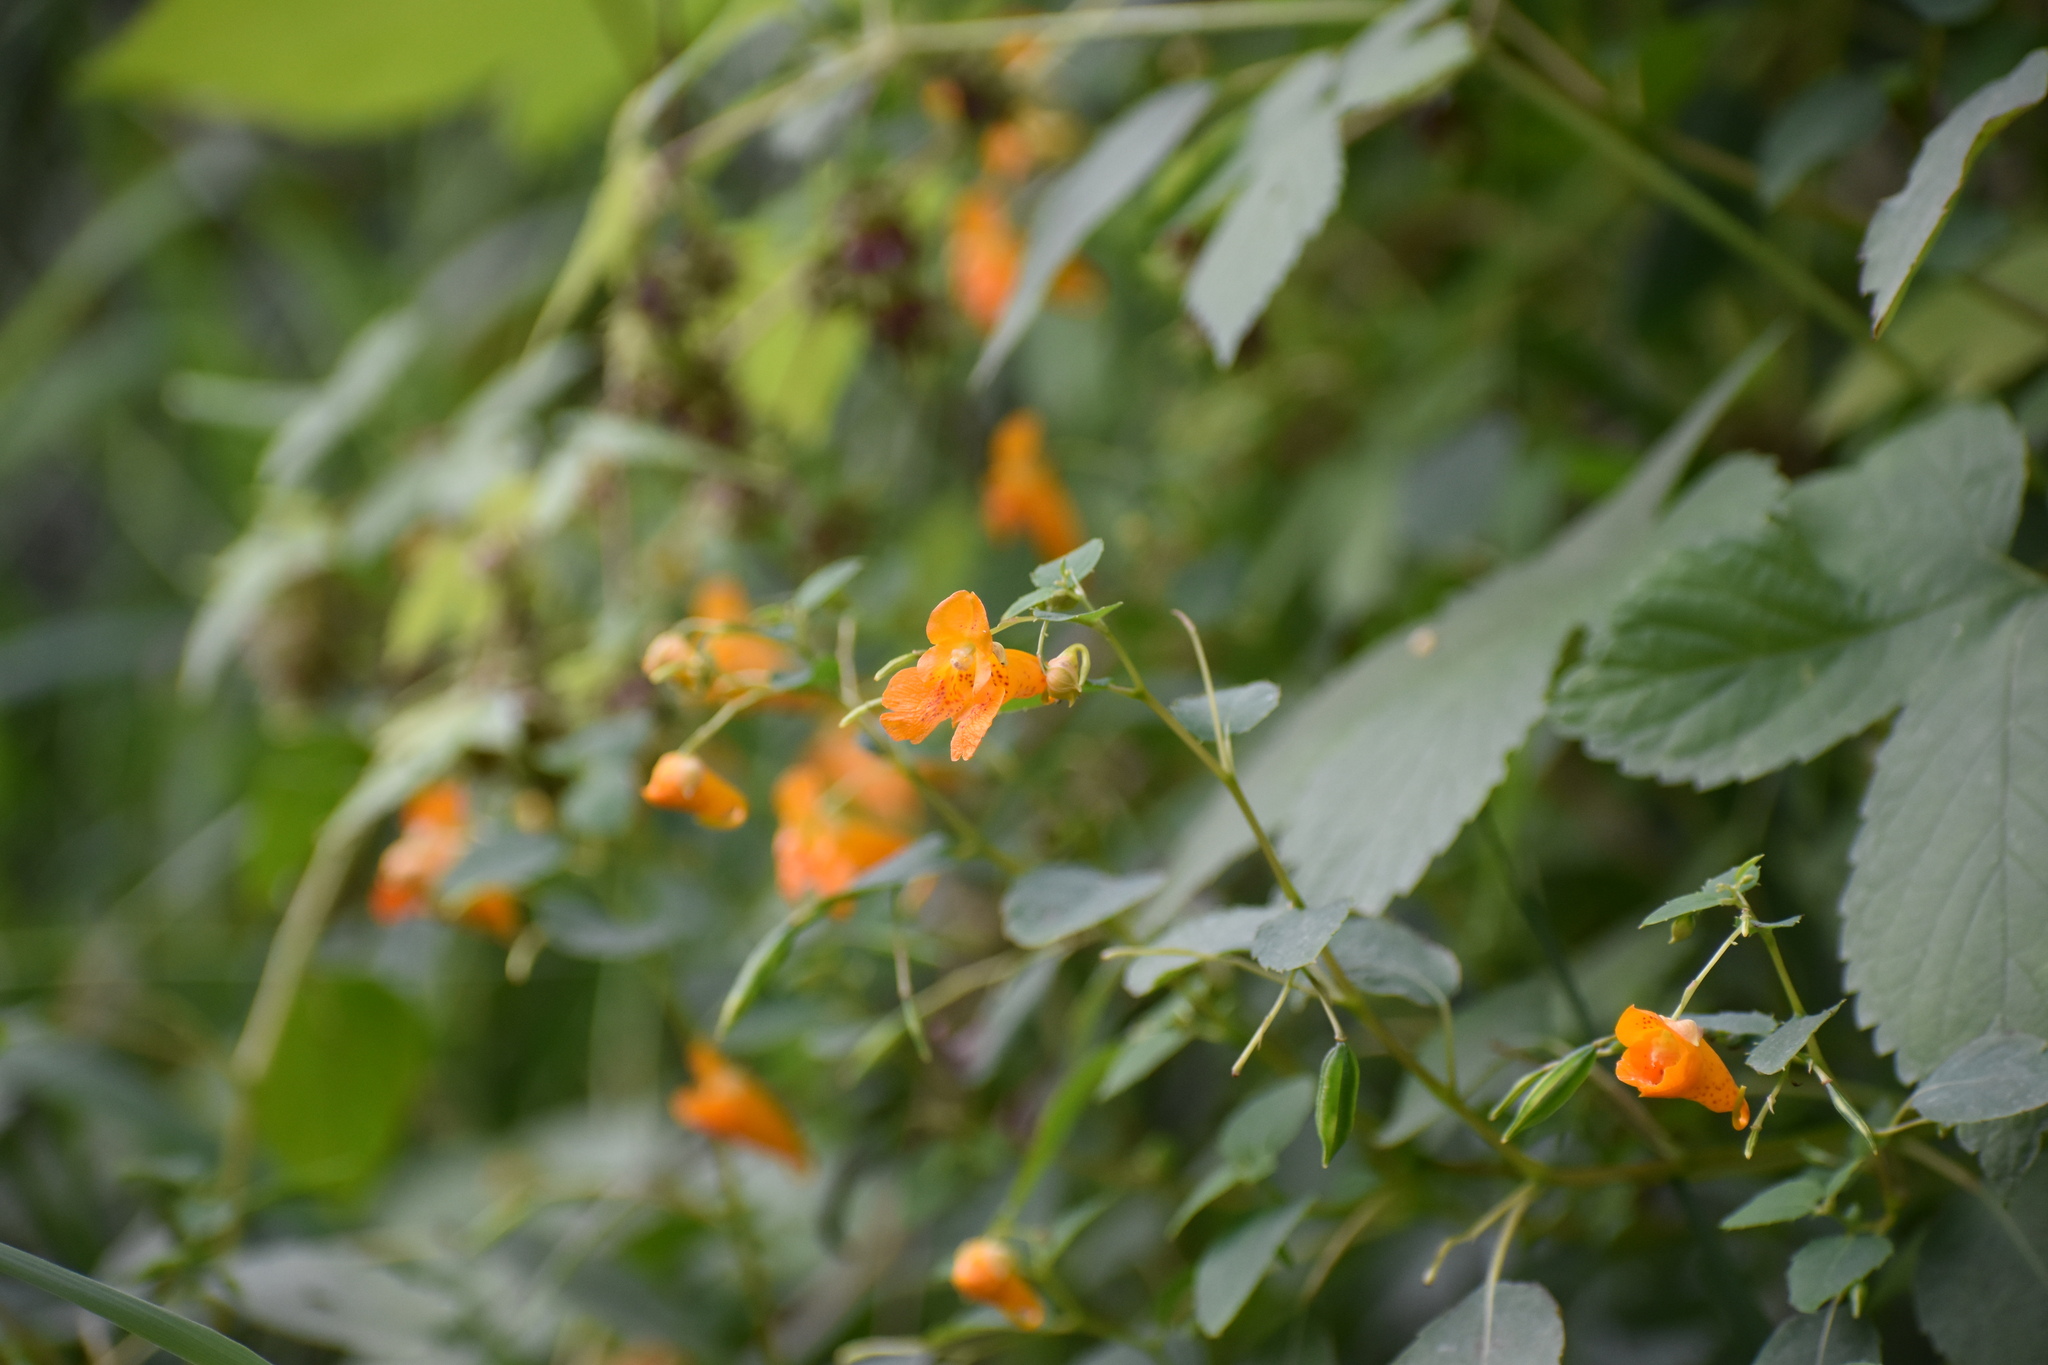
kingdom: Plantae
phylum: Tracheophyta
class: Magnoliopsida
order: Ericales
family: Balsaminaceae
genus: Impatiens
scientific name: Impatiens capensis
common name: Orange balsam
